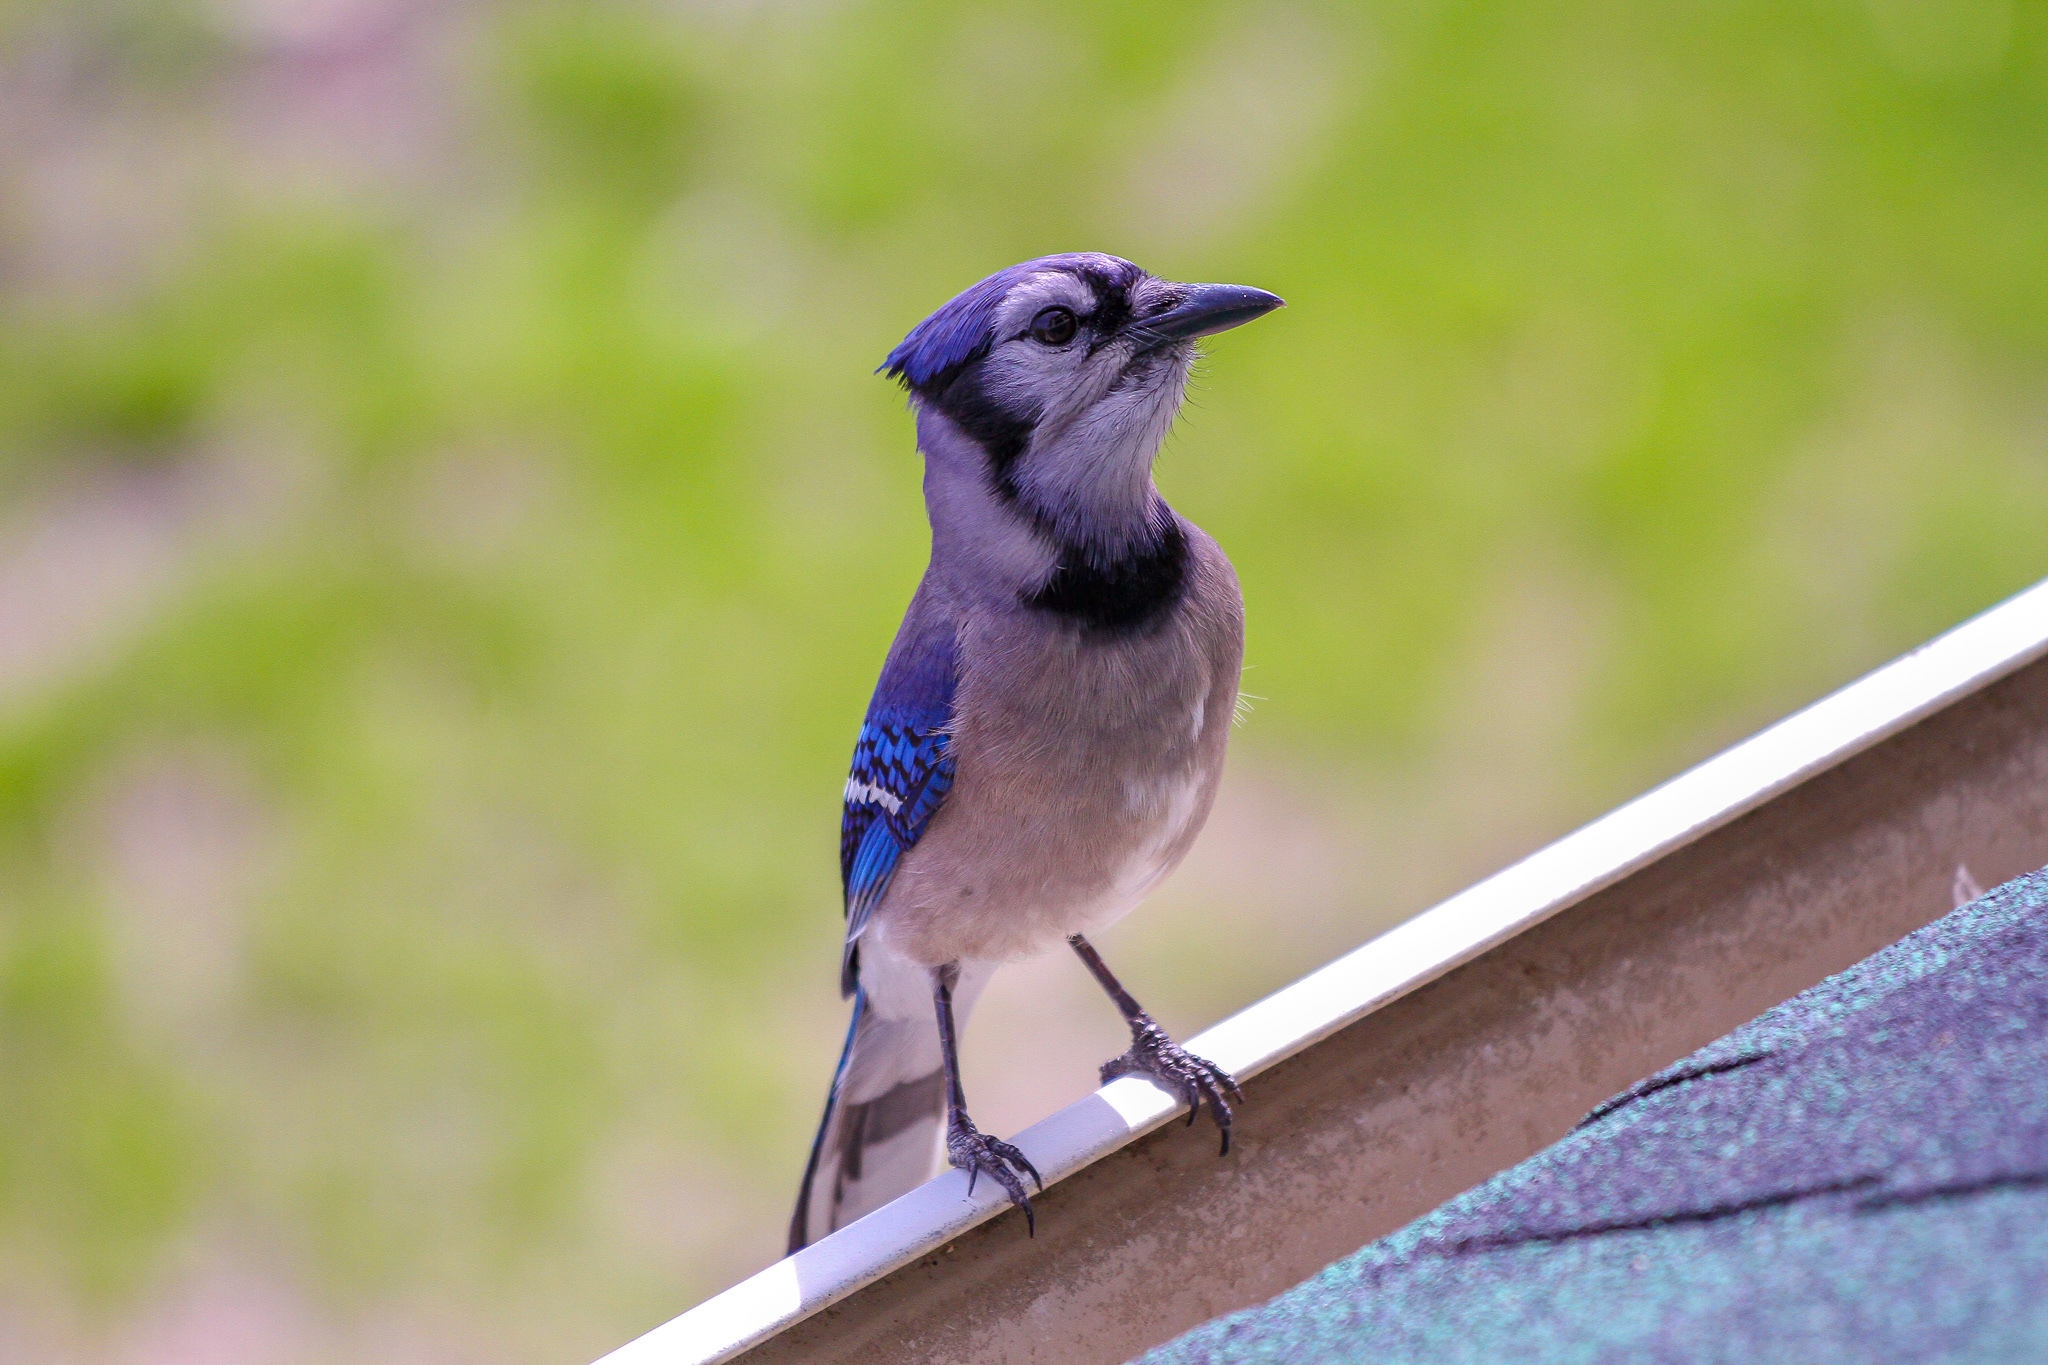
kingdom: Animalia
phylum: Chordata
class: Aves
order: Passeriformes
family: Corvidae
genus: Cyanocitta
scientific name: Cyanocitta cristata
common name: Blue jay
